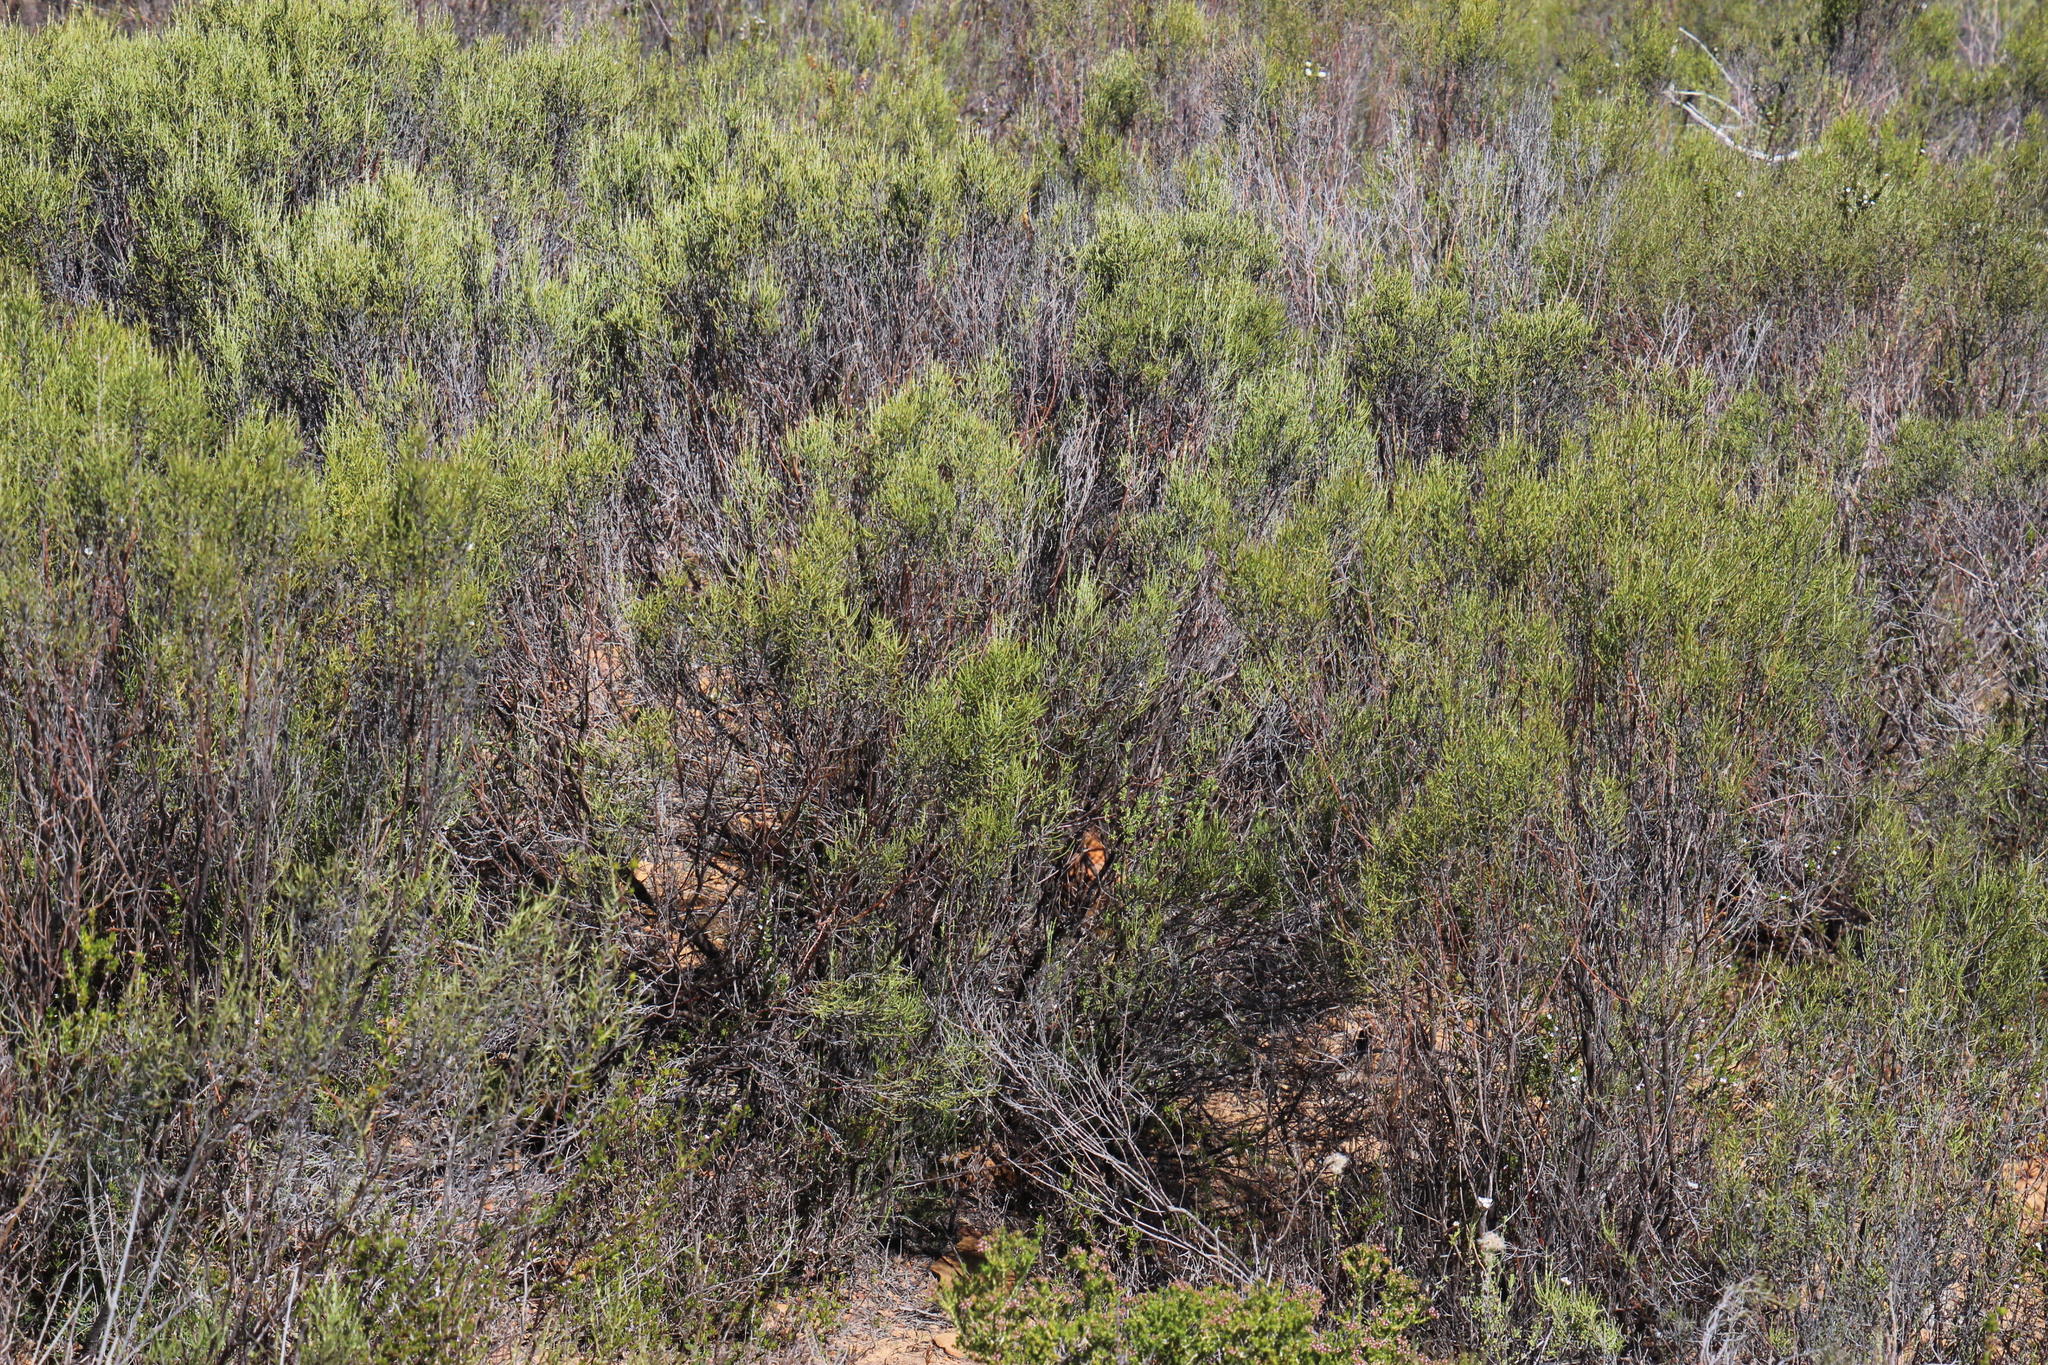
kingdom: Plantae
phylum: Tracheophyta
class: Magnoliopsida
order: Asterales
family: Asteraceae
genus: Dicerothamnus
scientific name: Dicerothamnus rhinocerotis
